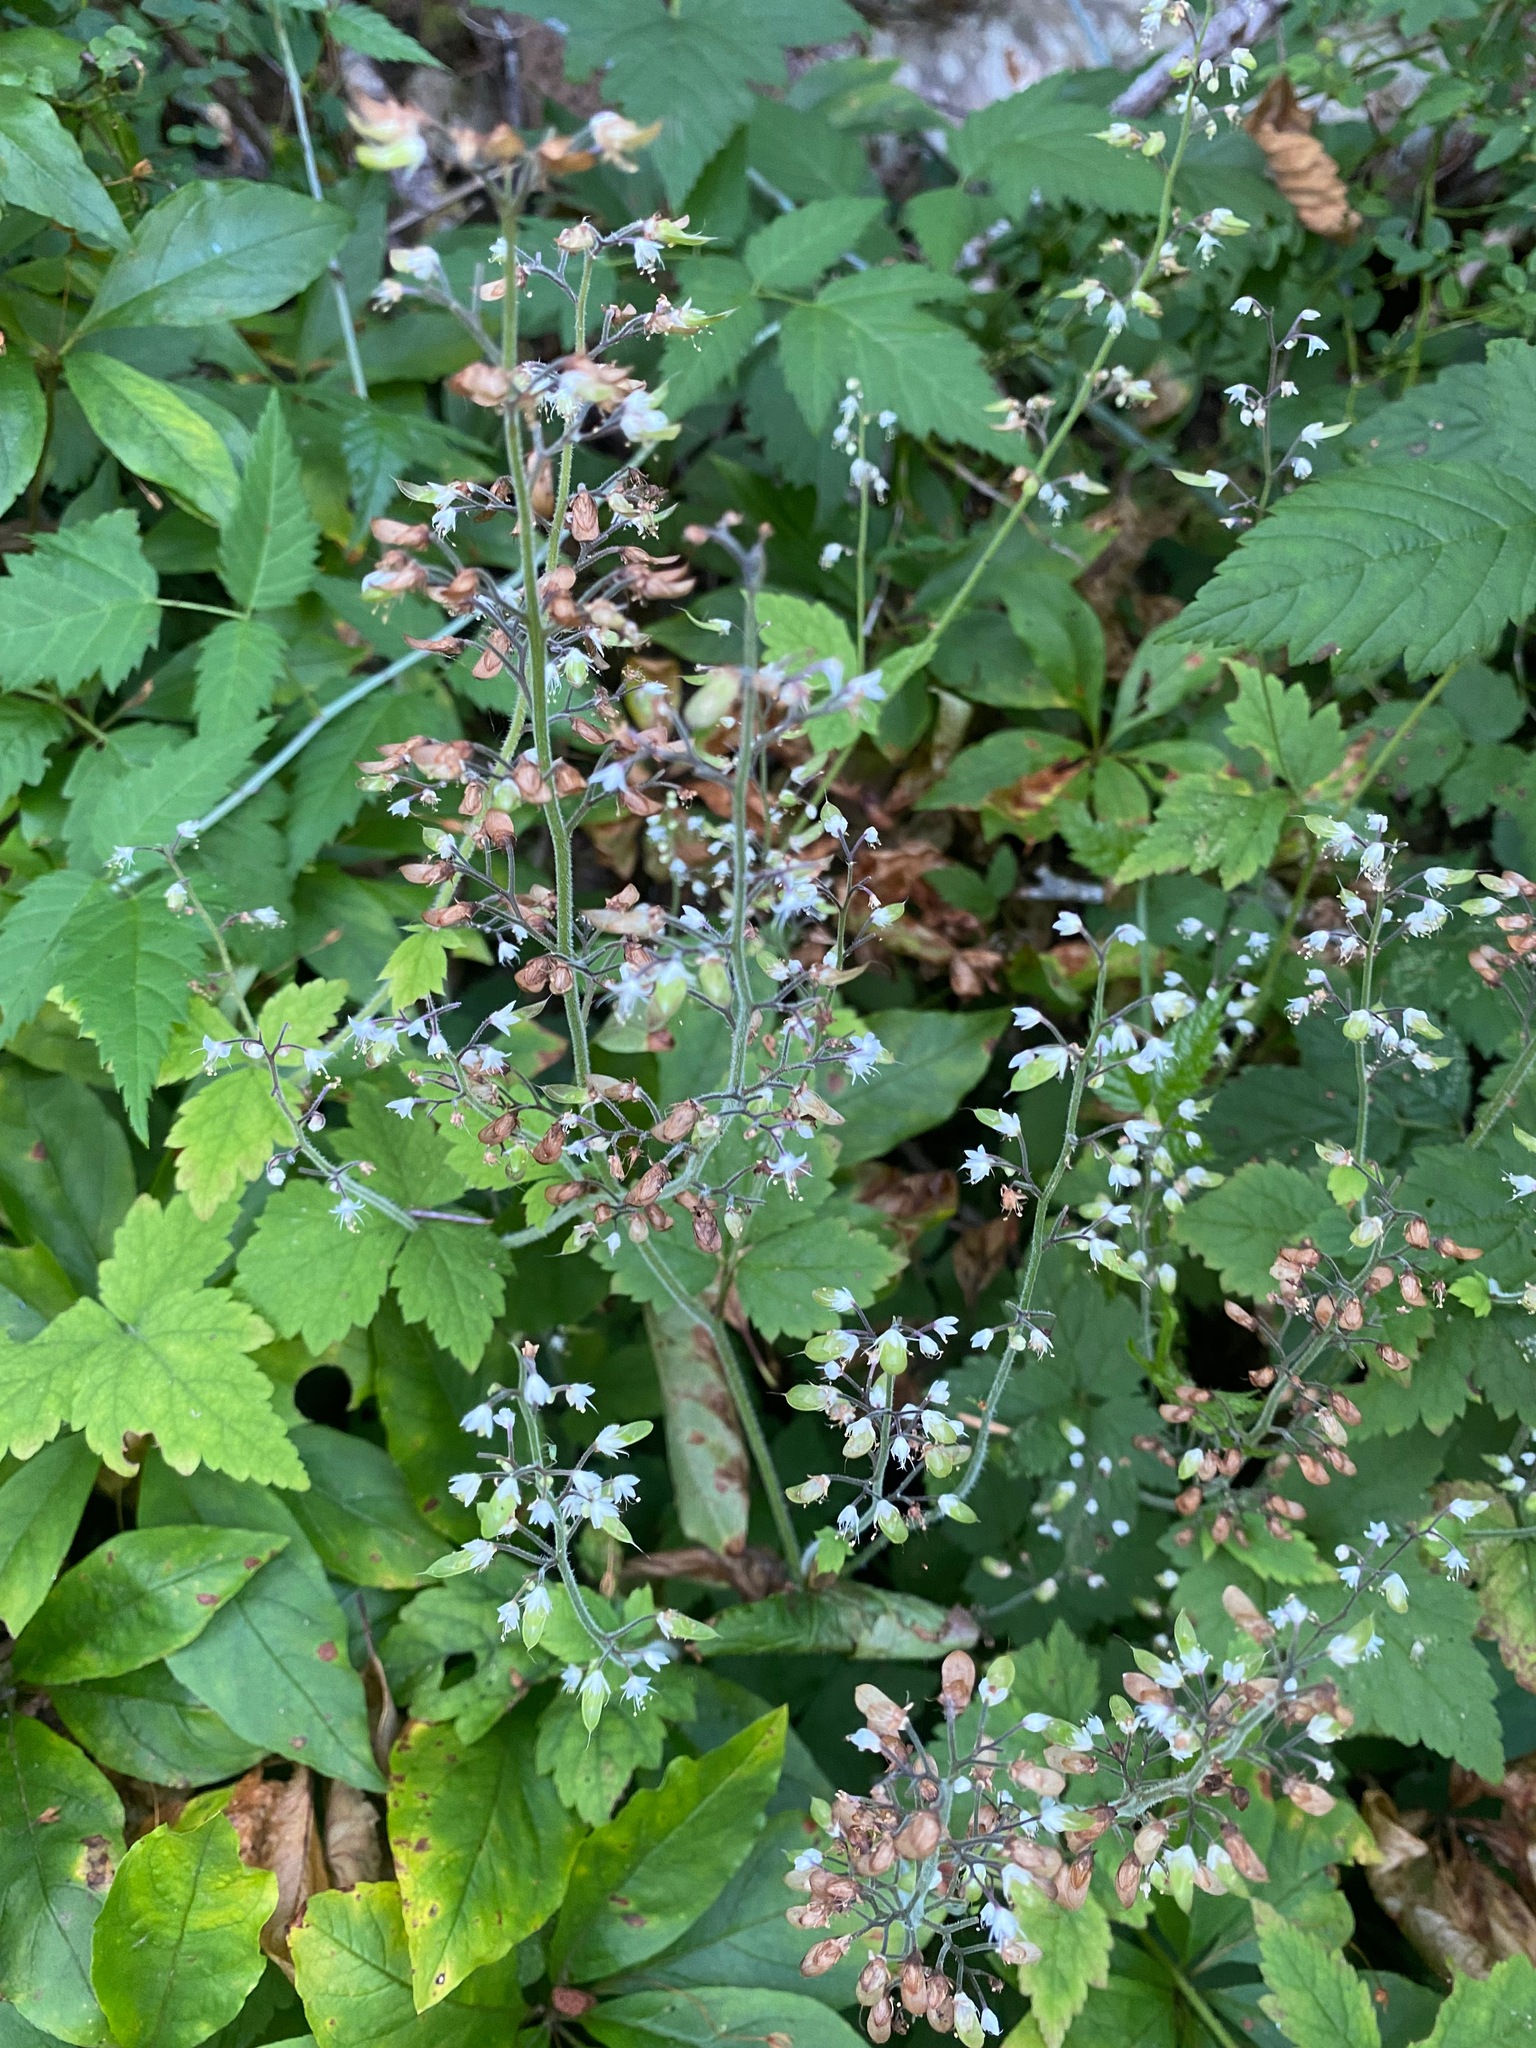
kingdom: Plantae
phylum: Tracheophyta
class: Magnoliopsida
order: Saxifragales
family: Saxifragaceae
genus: Tiarella
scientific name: Tiarella trifoliata
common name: Sugar-scoop
